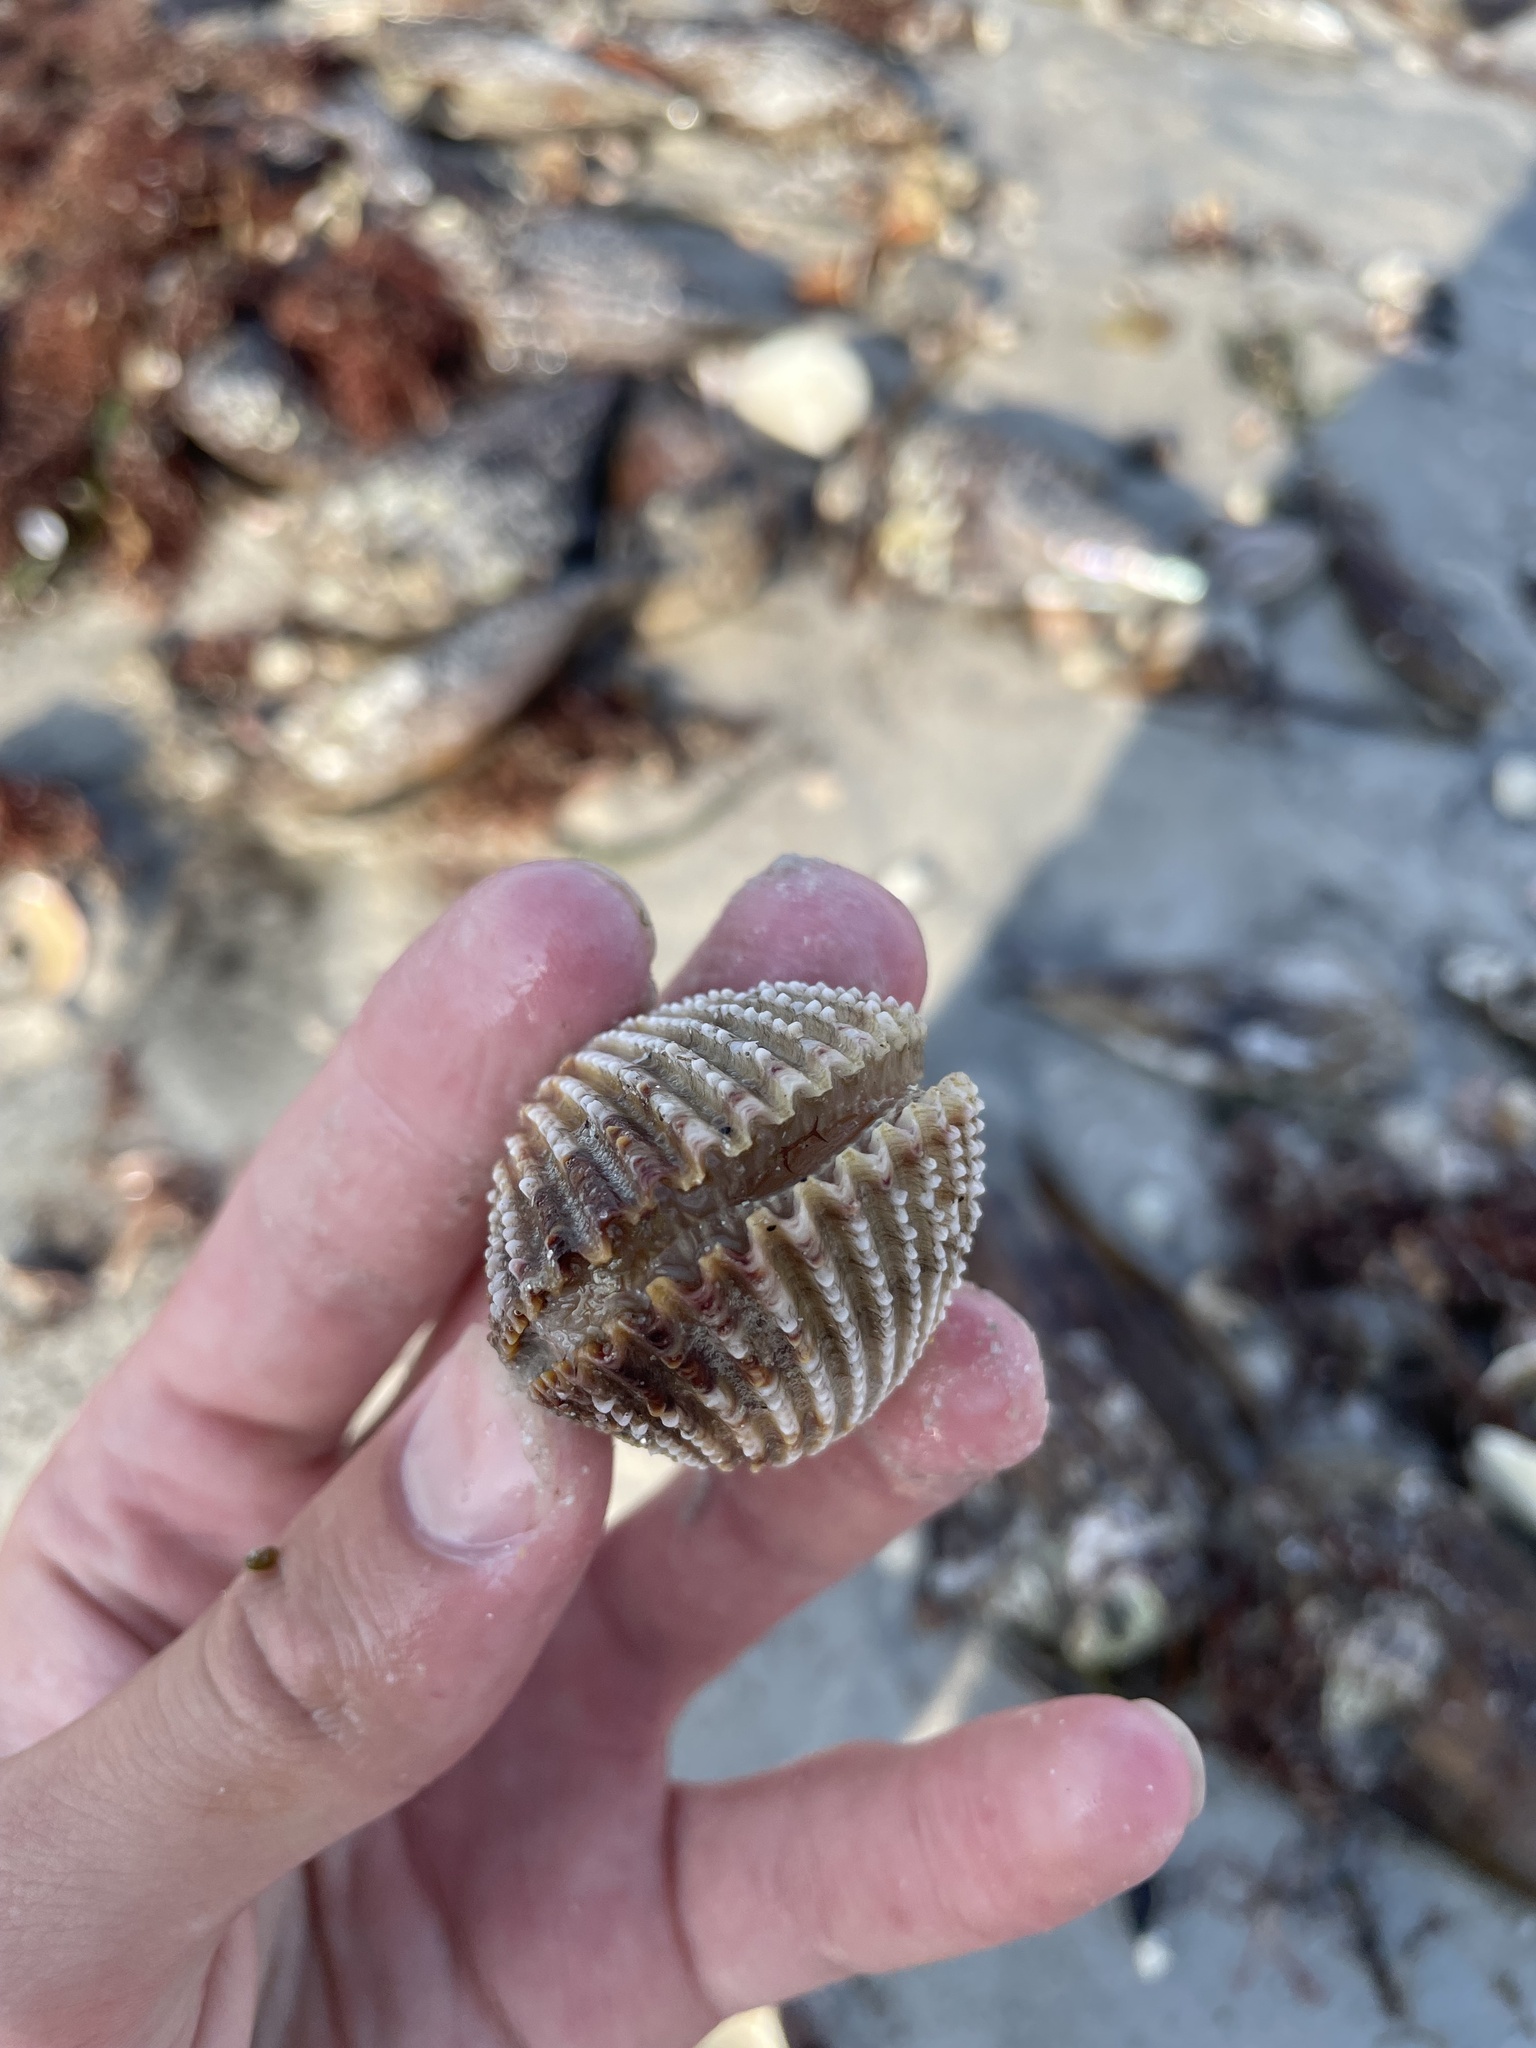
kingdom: Animalia
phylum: Mollusca
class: Bivalvia
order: Cardiida
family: Cardiidae
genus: Trachycardium
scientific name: Trachycardium egmontianum
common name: Florida pricklycockle
